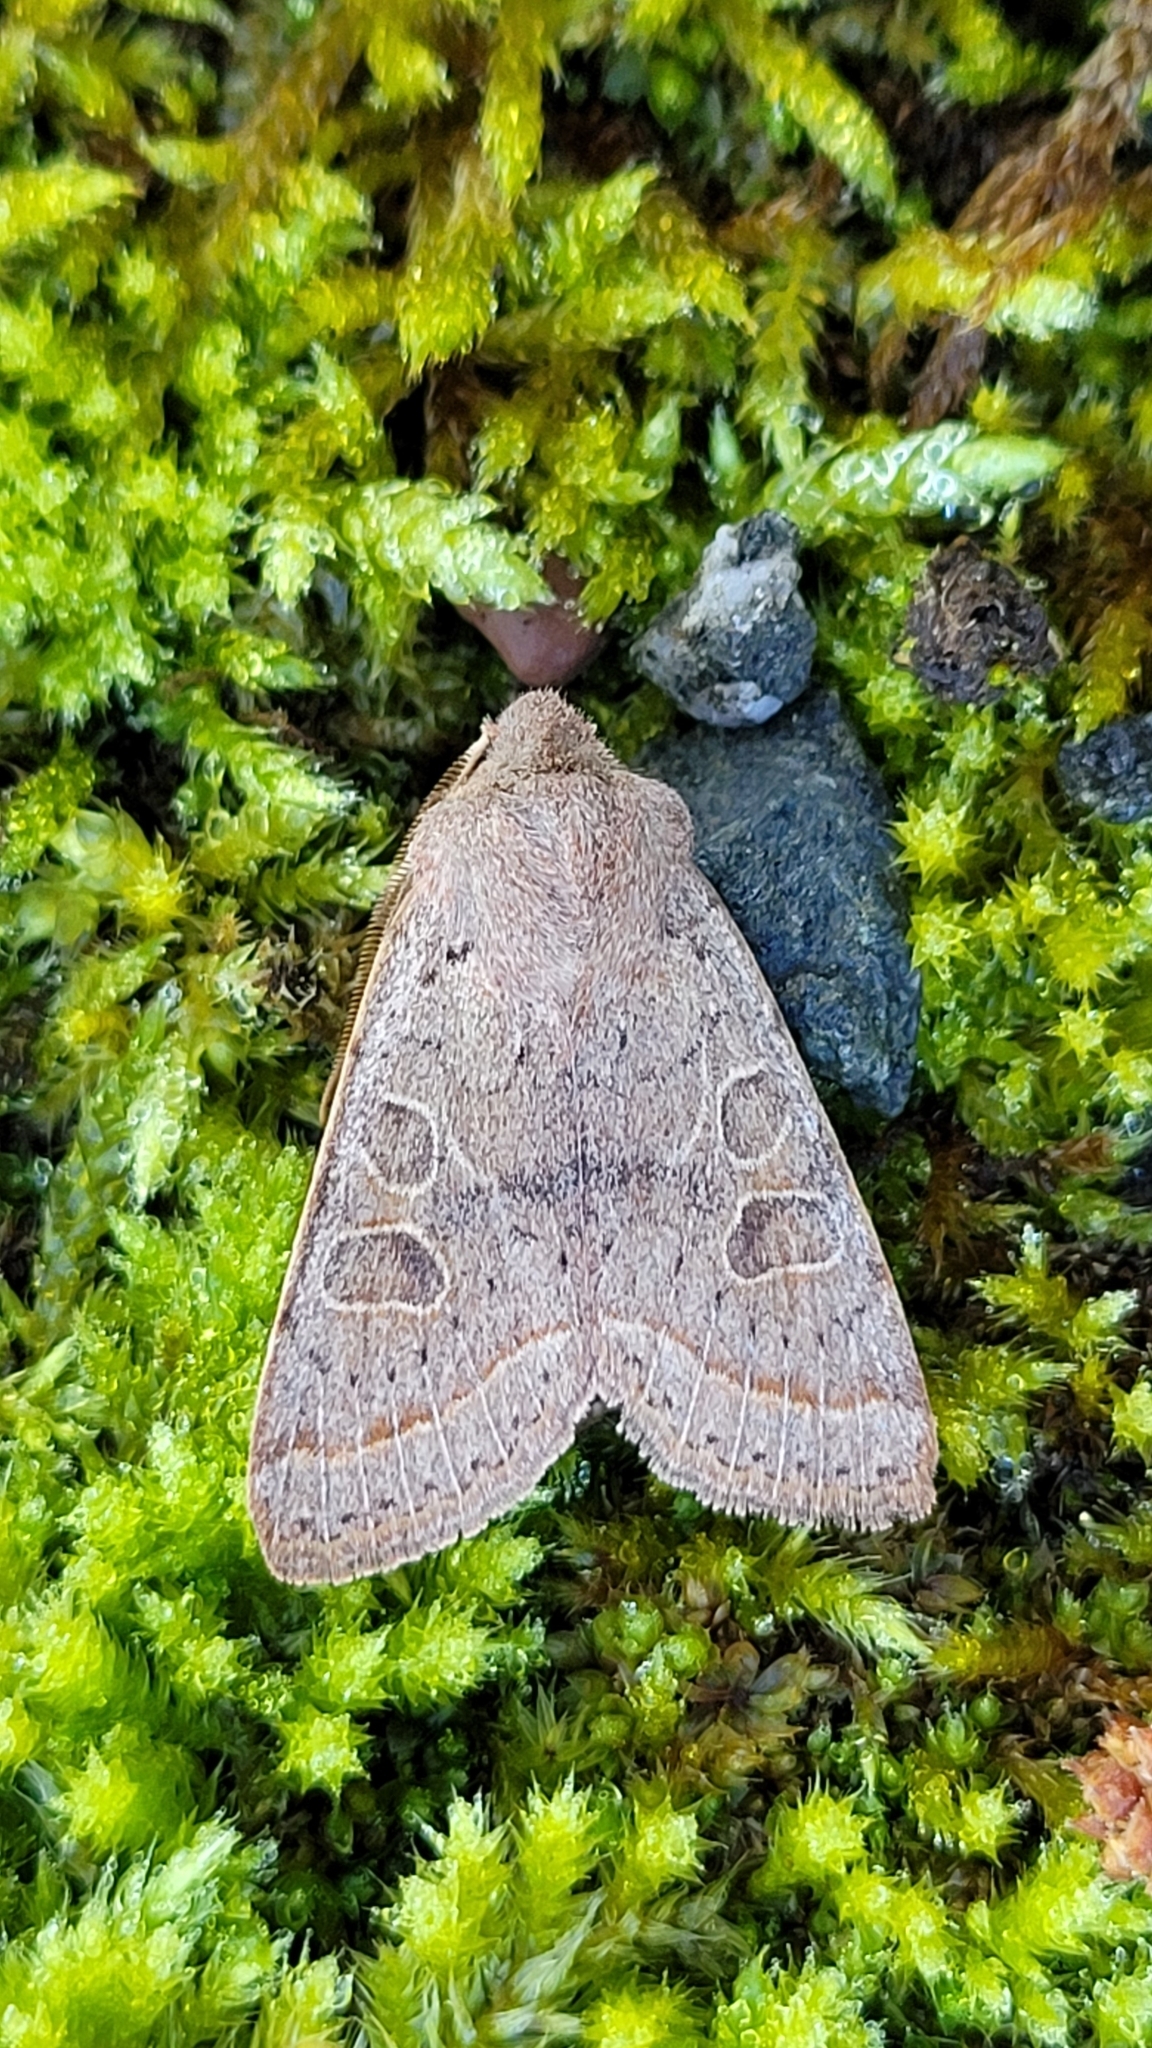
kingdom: Animalia
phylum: Arthropoda
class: Insecta
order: Lepidoptera
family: Noctuidae
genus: Orthosia
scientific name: Orthosia cerasi
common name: Common quaker
